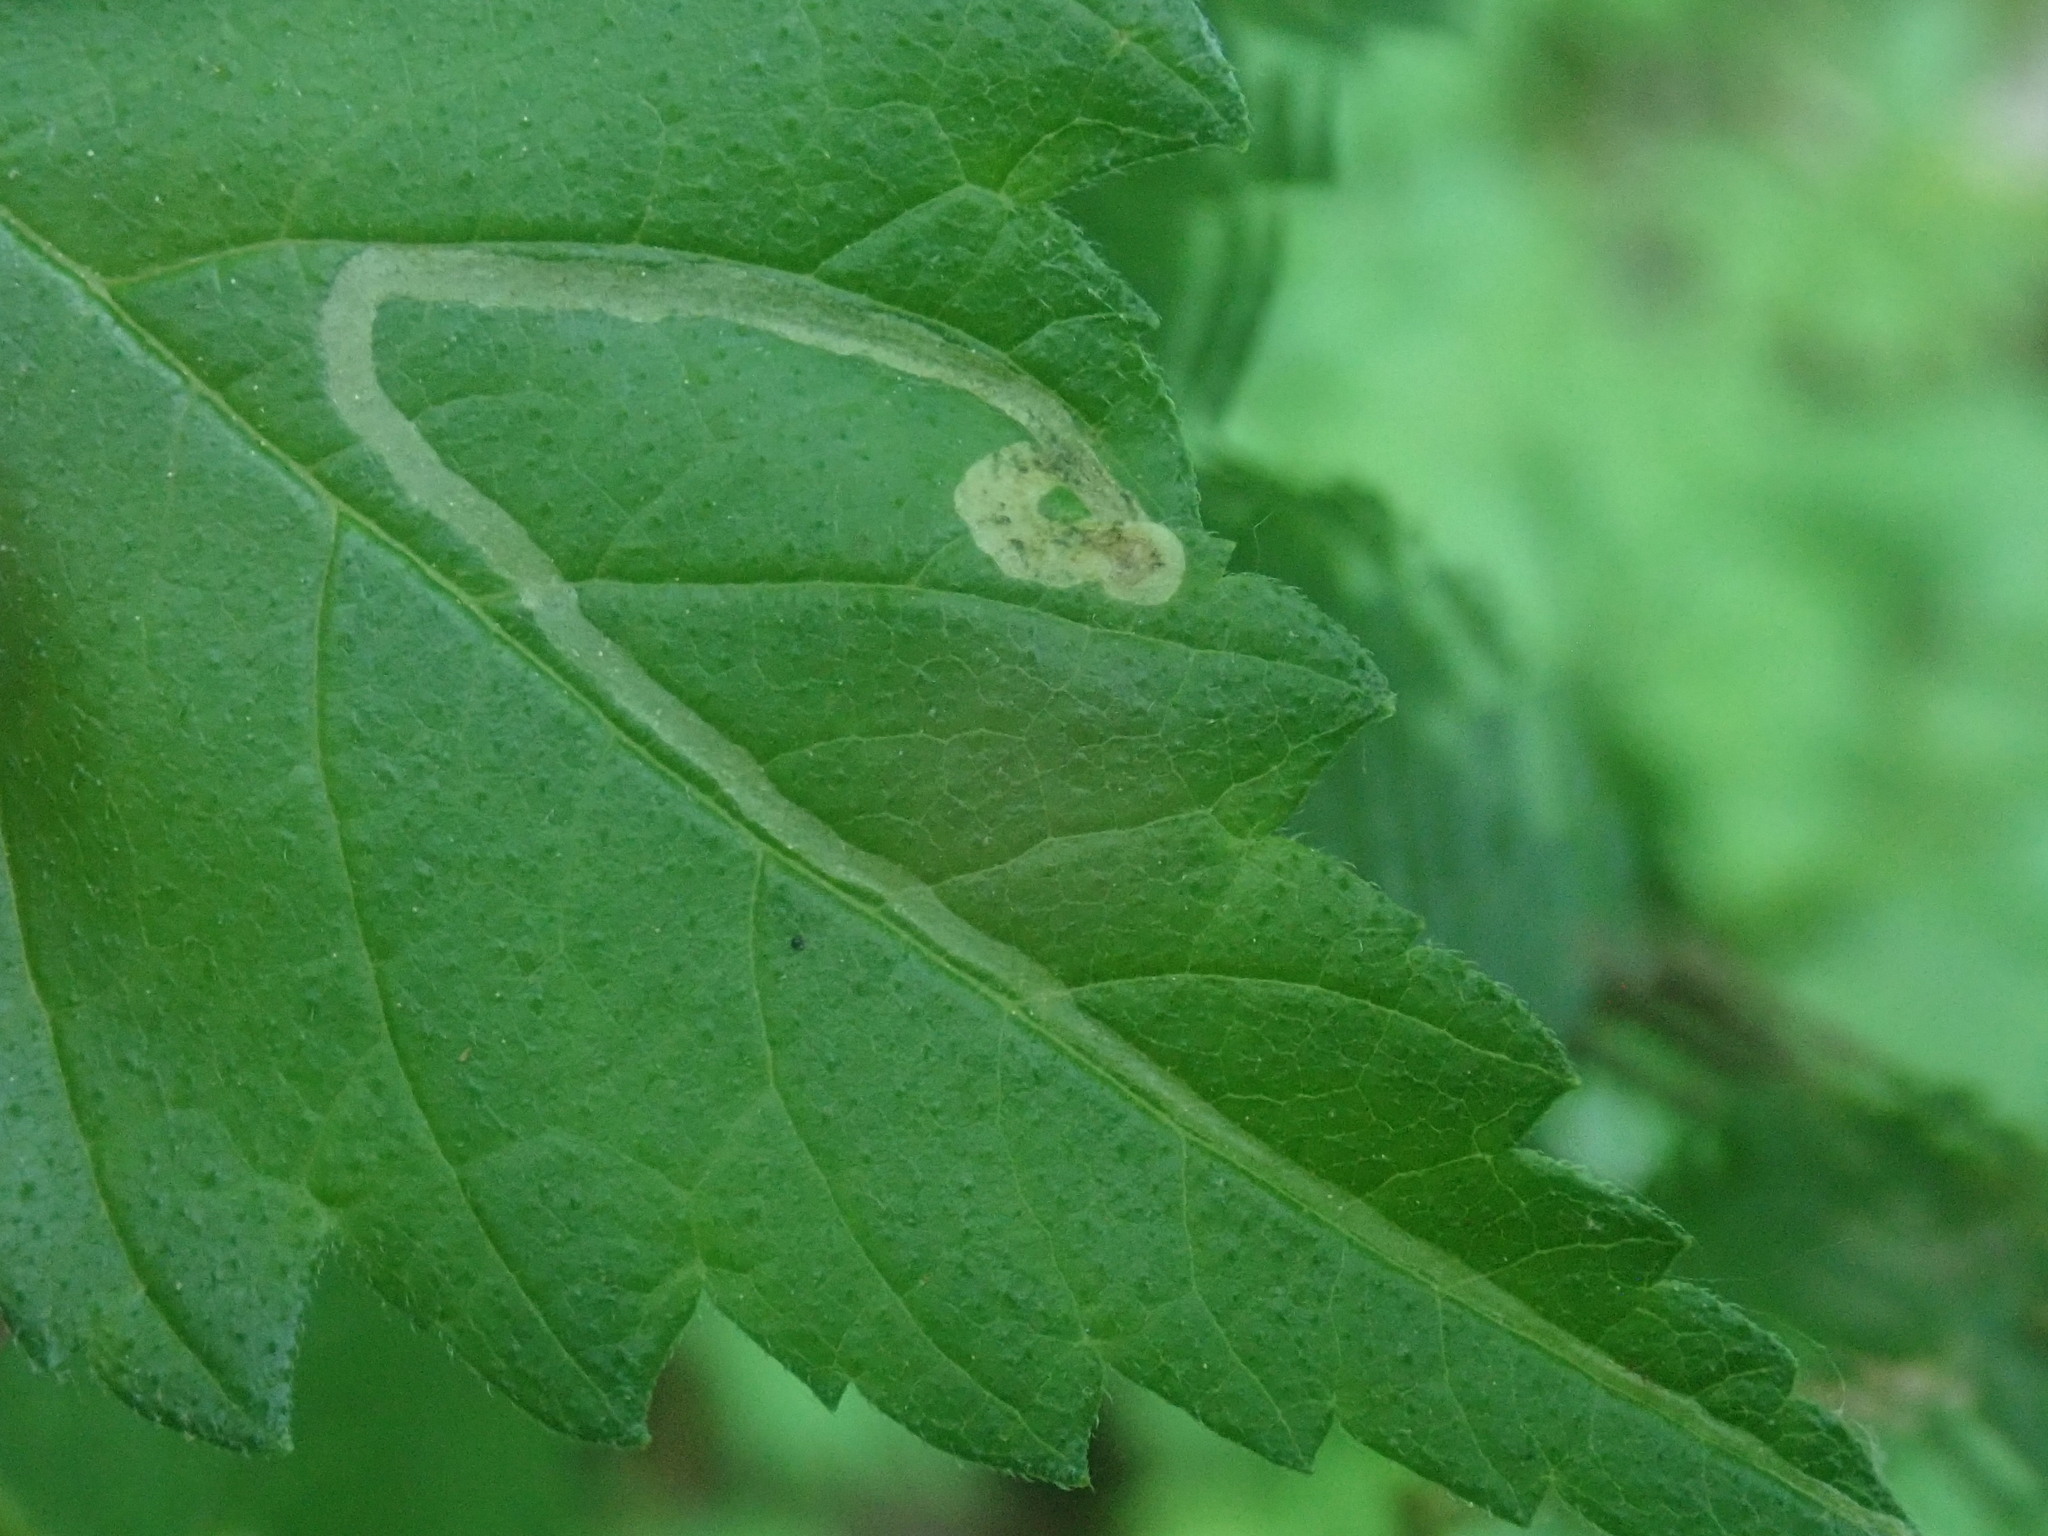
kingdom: Animalia
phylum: Arthropoda
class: Insecta
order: Diptera
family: Agromyzidae
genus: Agromyza
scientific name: Agromyza aristata
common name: Elm agromyzid leafminer
